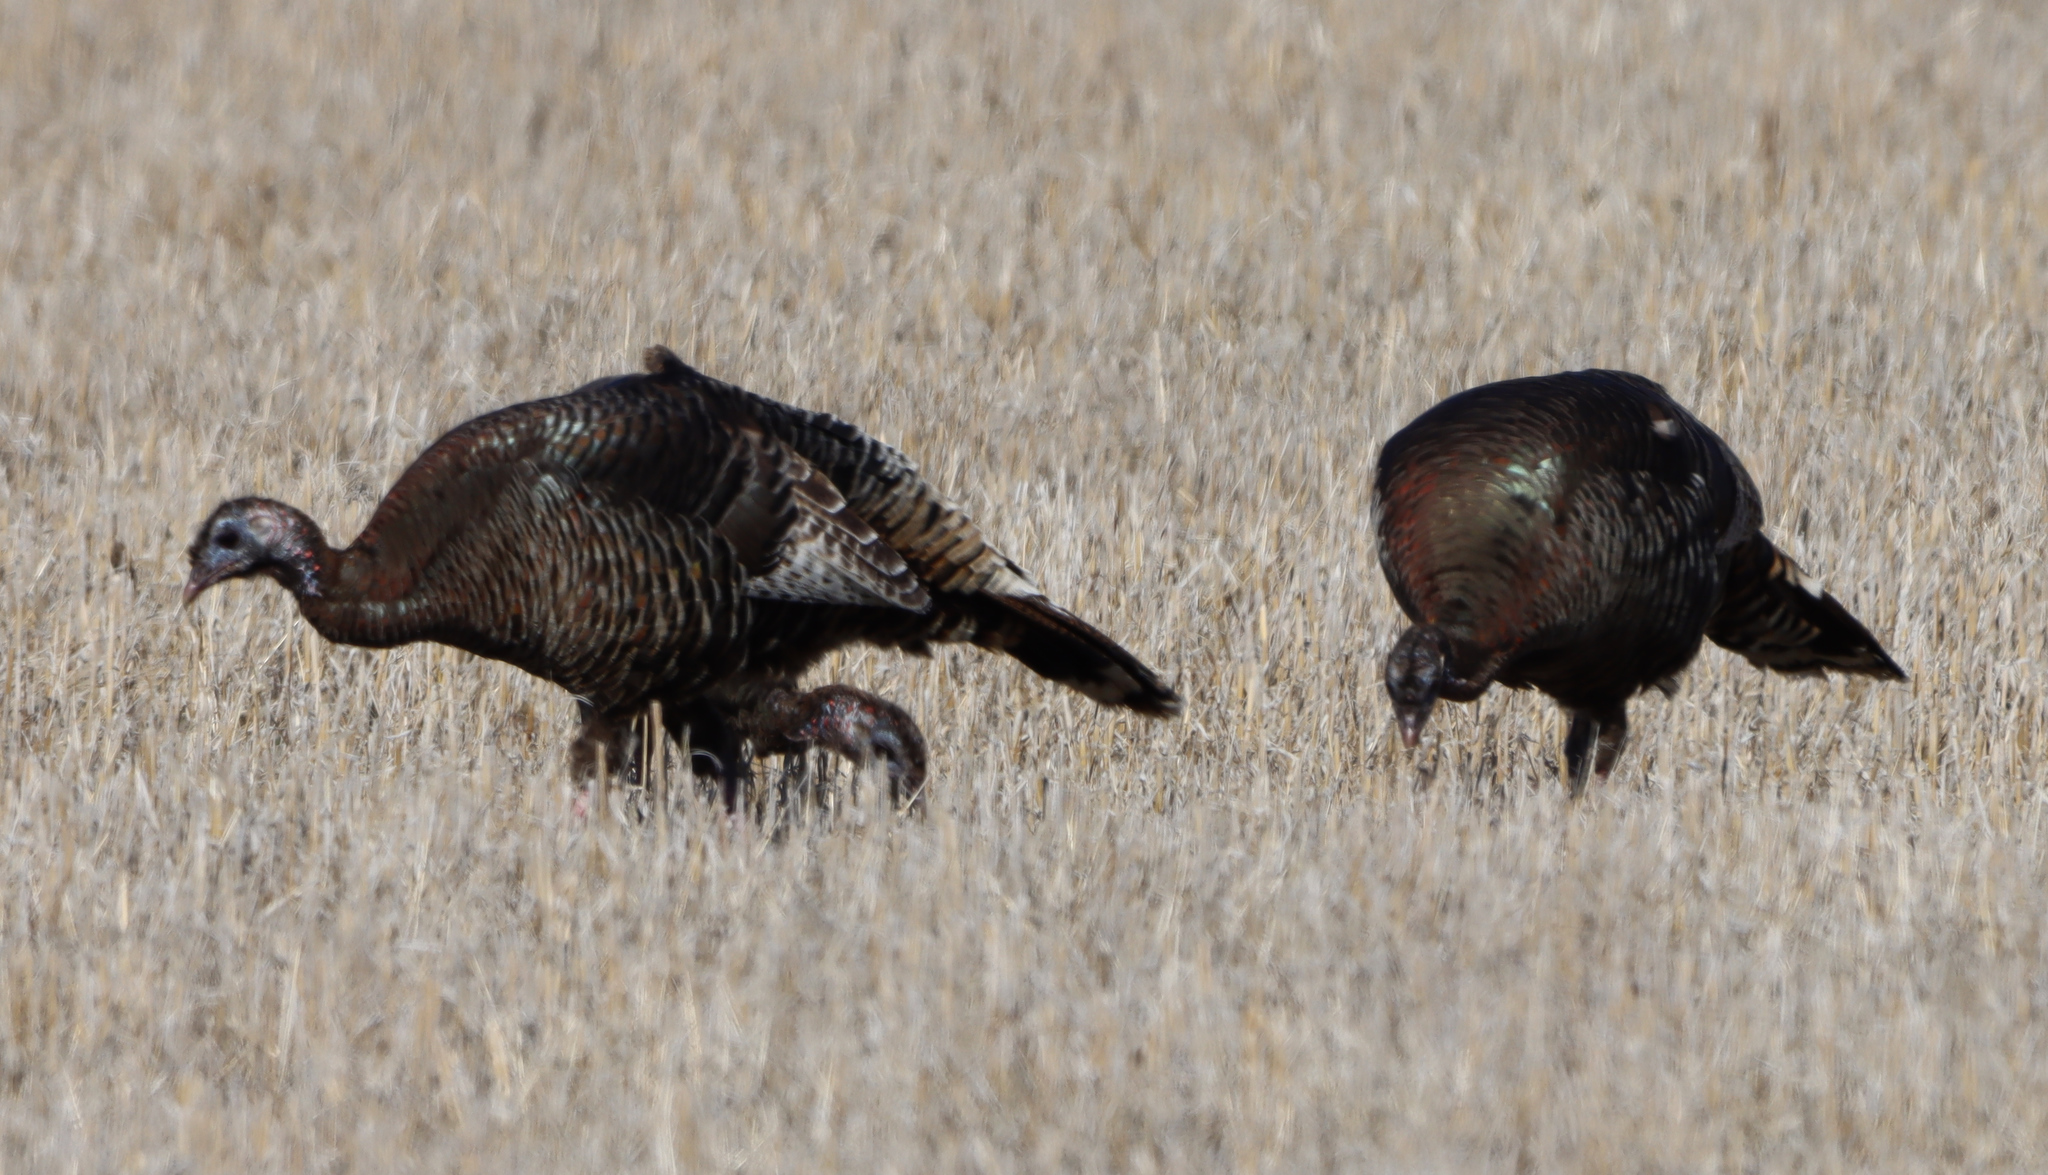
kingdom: Animalia
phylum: Chordata
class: Aves
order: Galliformes
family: Phasianidae
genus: Meleagris
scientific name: Meleagris gallopavo
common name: Wild turkey
